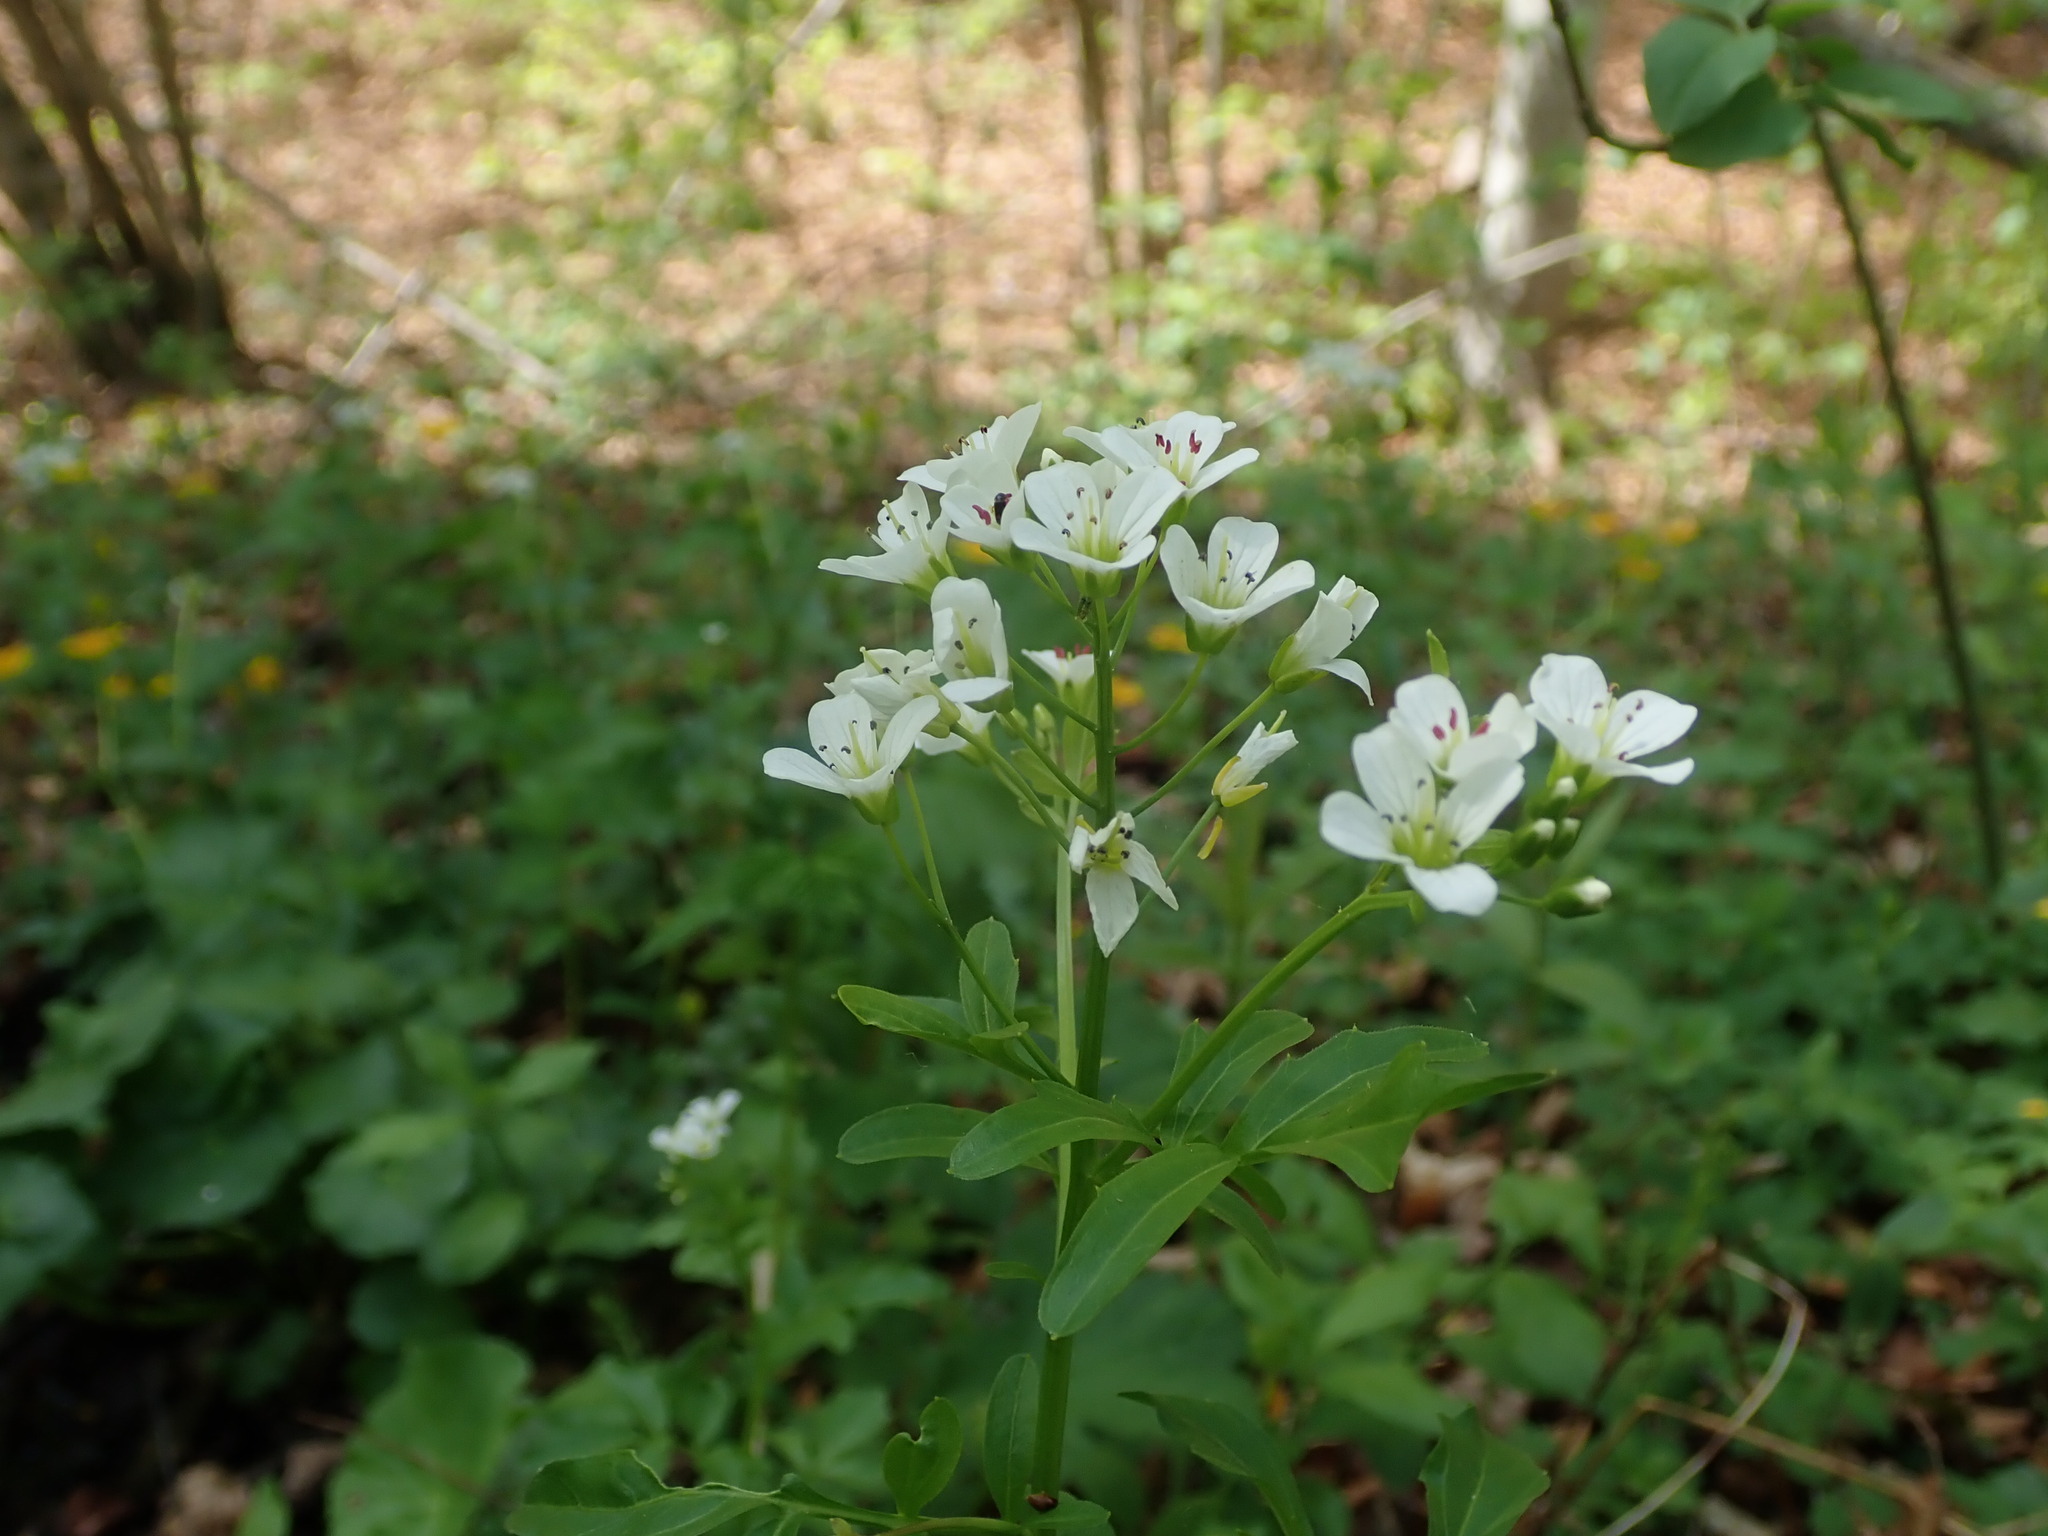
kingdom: Plantae
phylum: Tracheophyta
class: Magnoliopsida
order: Brassicales
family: Brassicaceae
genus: Cardamine
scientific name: Cardamine amara
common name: Large bitter-cress
